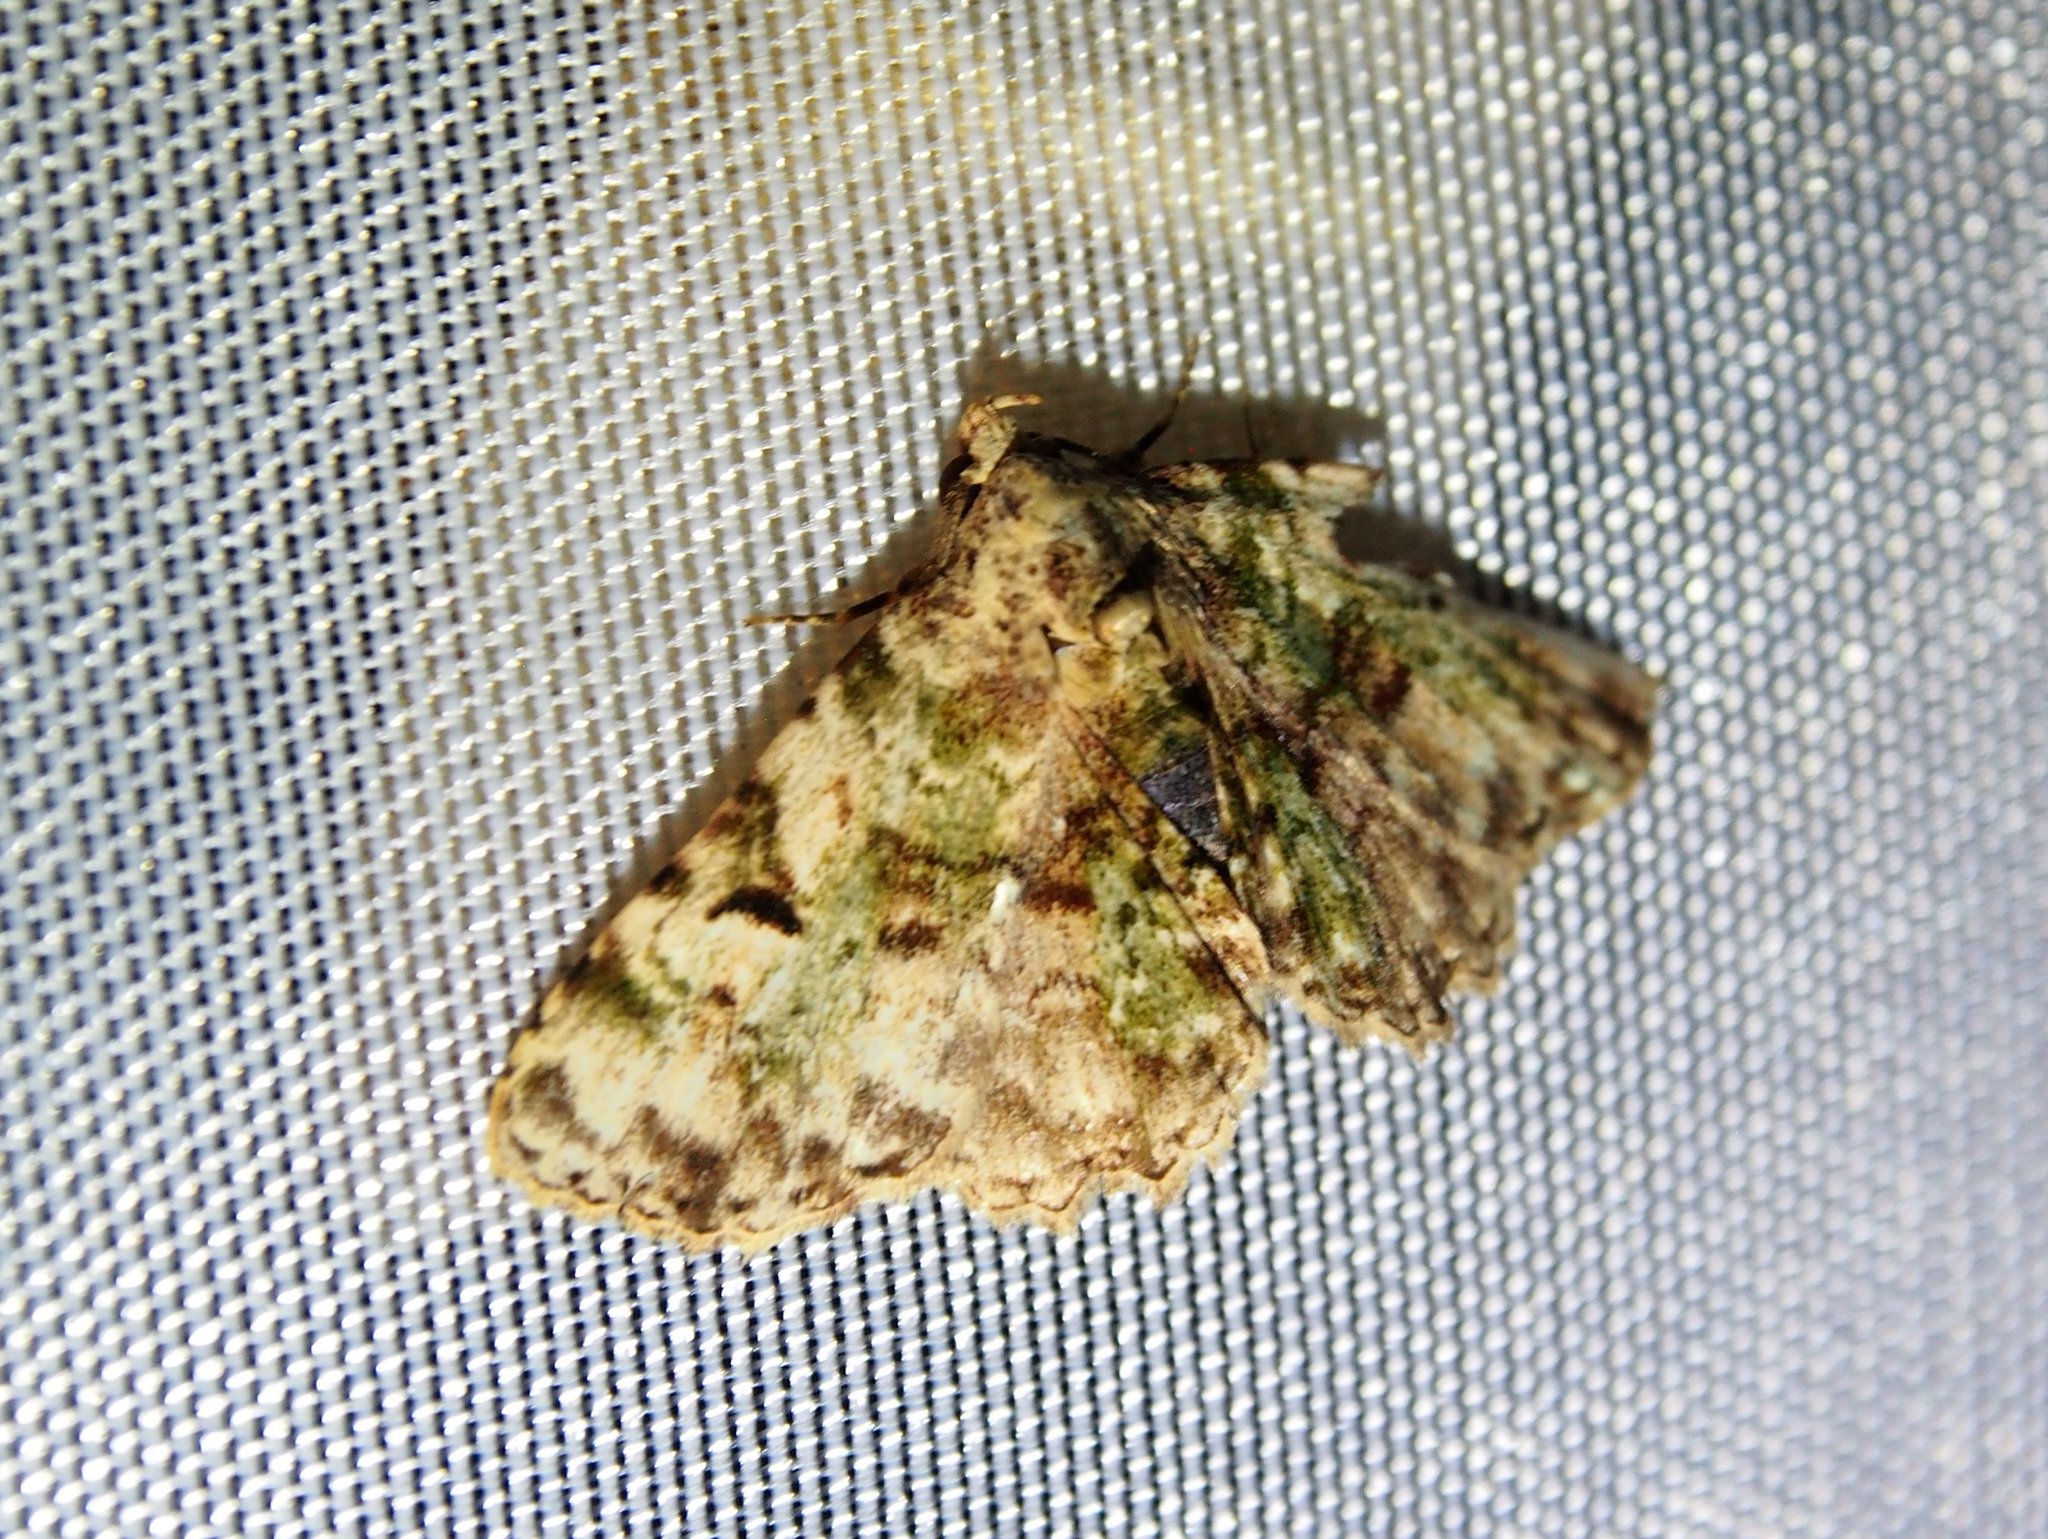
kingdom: Animalia
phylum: Arthropoda
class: Insecta
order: Lepidoptera
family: Erebidae
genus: Metalectra
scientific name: Metalectra marginata
